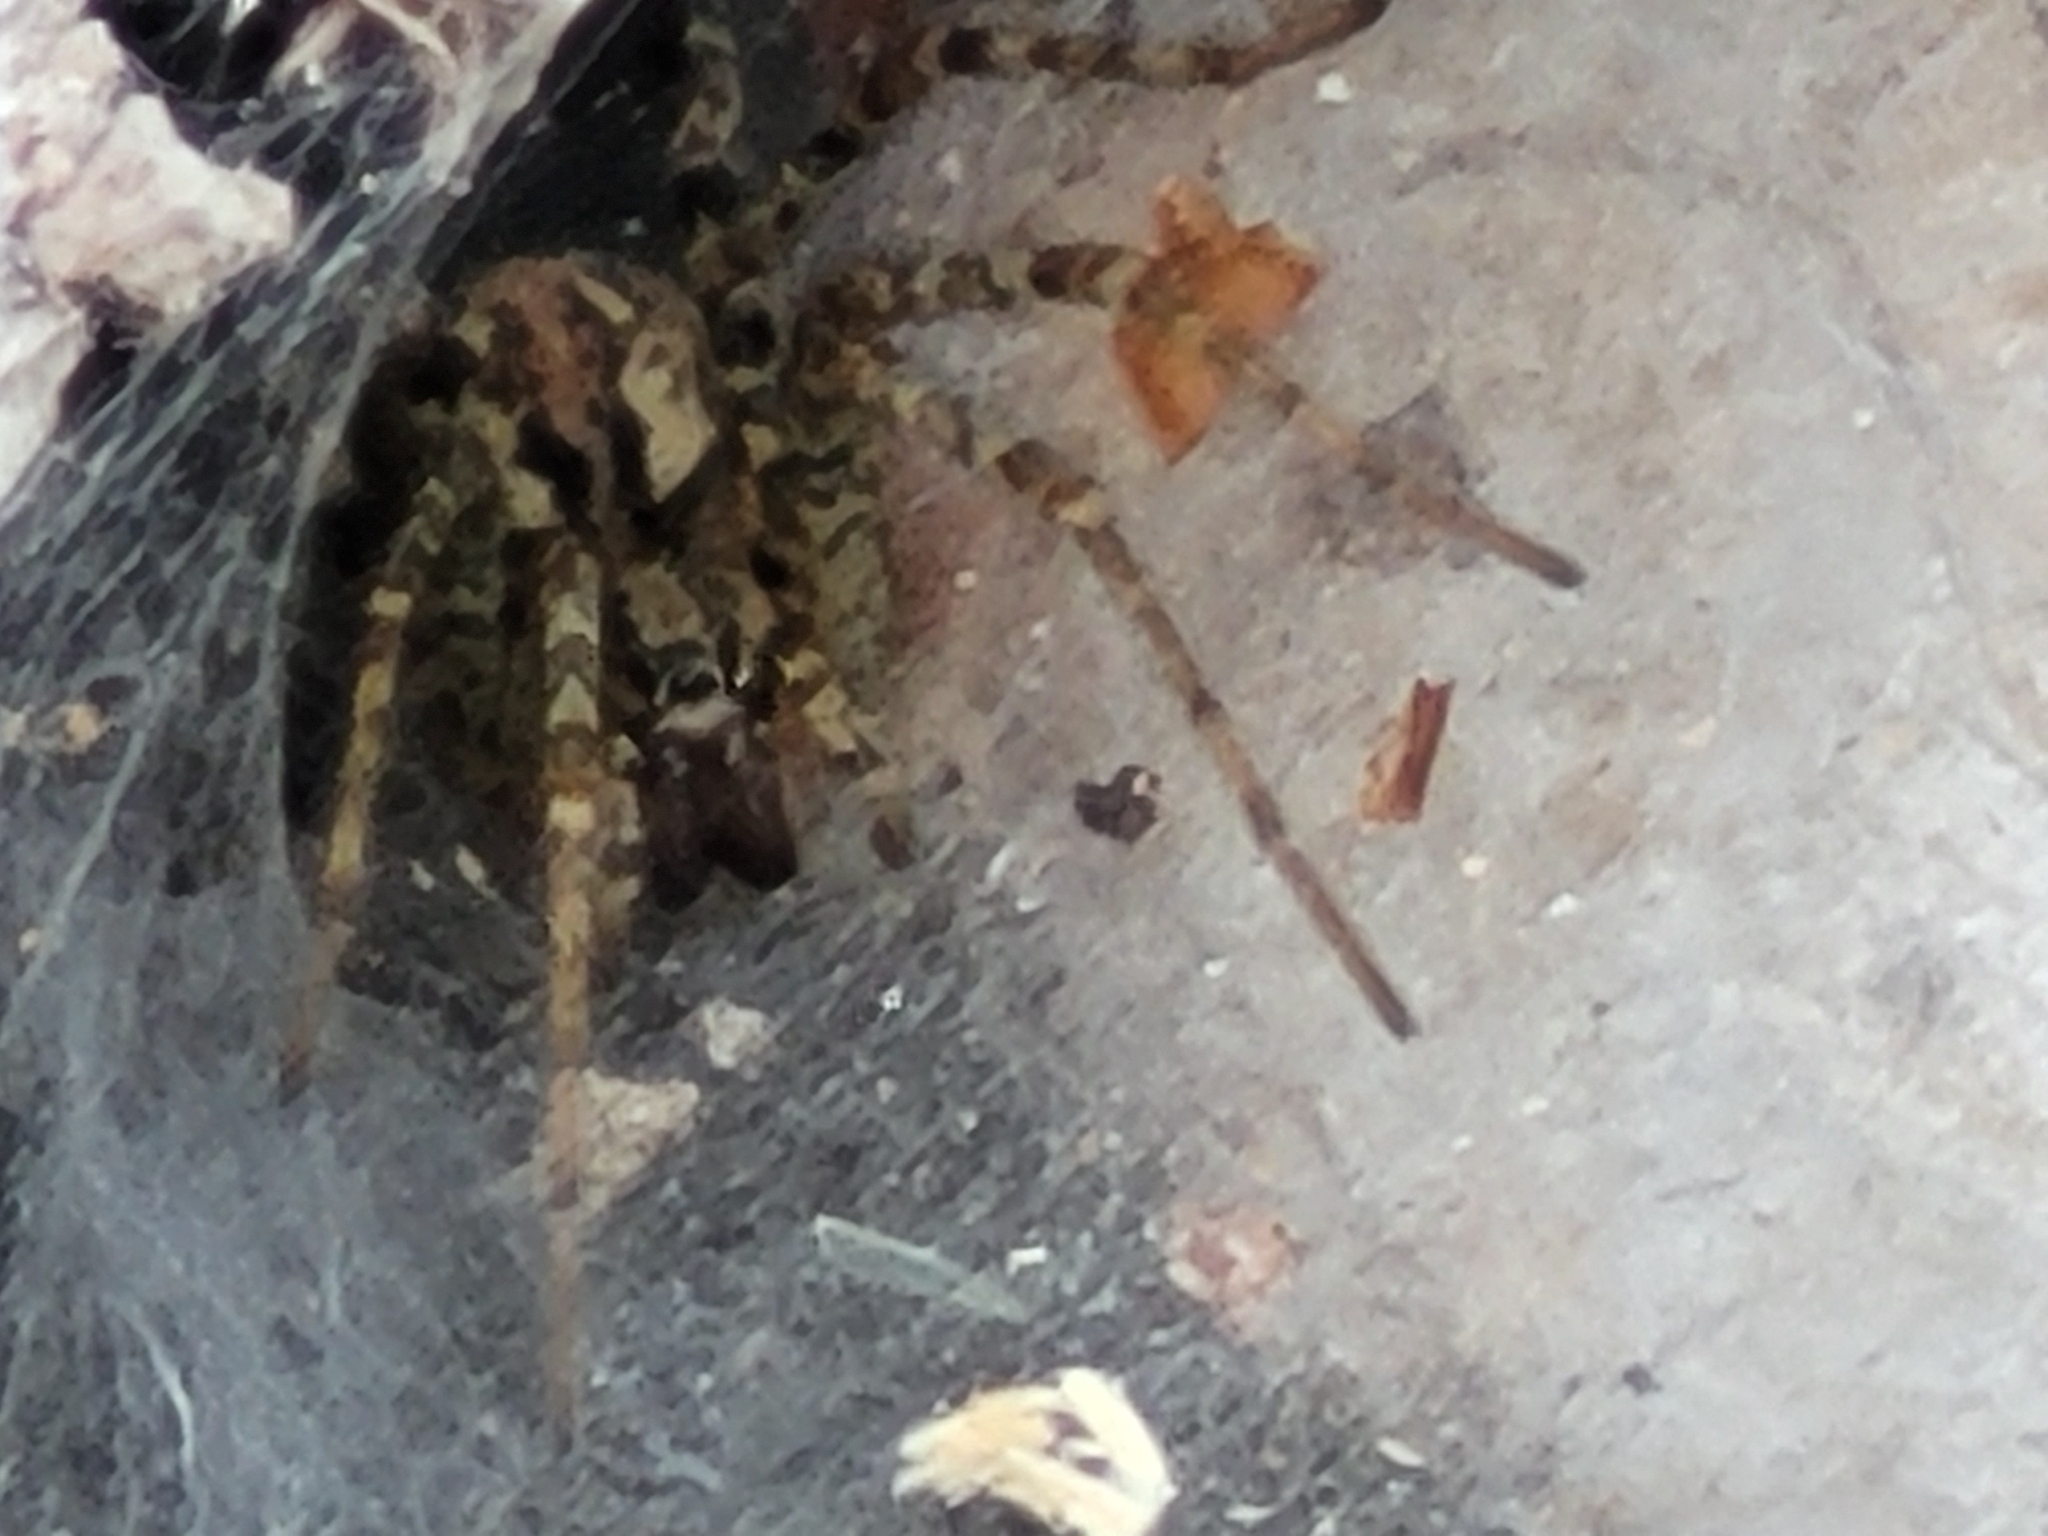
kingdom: Animalia
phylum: Arthropoda
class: Arachnida
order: Araneae
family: Agelenidae
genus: Tegenaria
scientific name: Tegenaria ferruginea
